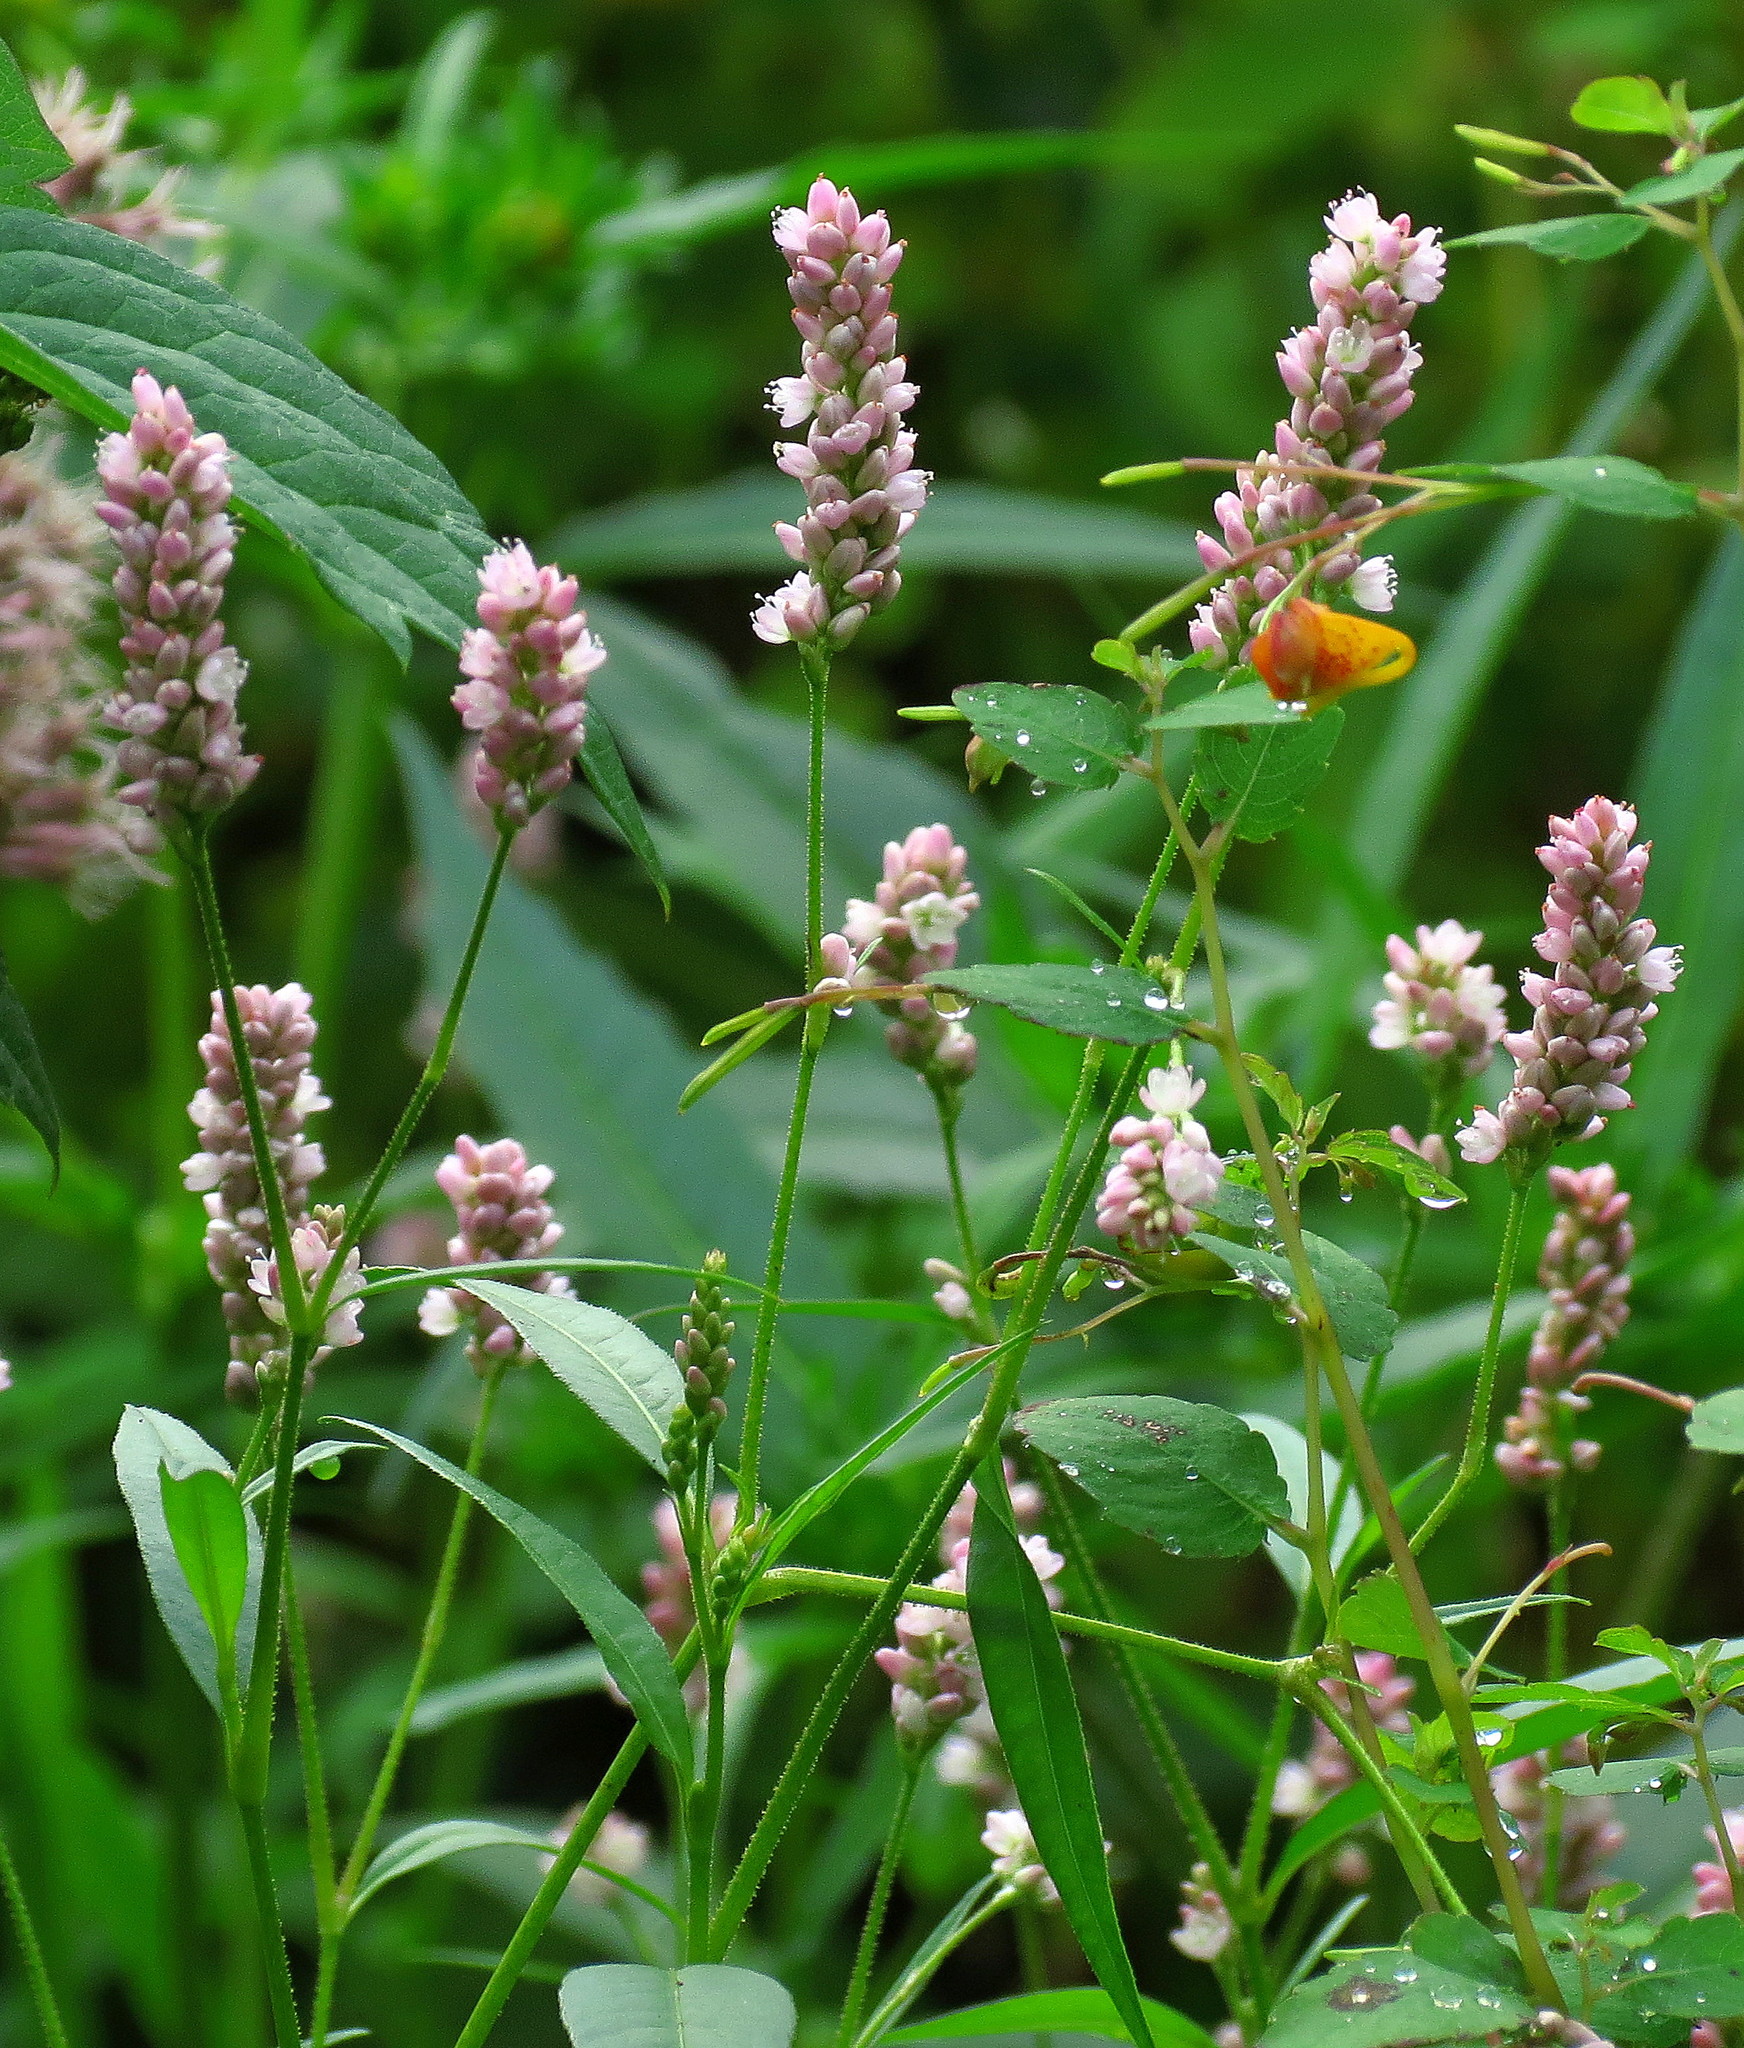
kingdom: Plantae
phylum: Tracheophyta
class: Magnoliopsida
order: Caryophyllales
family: Polygonaceae
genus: Persicaria
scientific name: Persicaria pensylvanica
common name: Pinkweed
